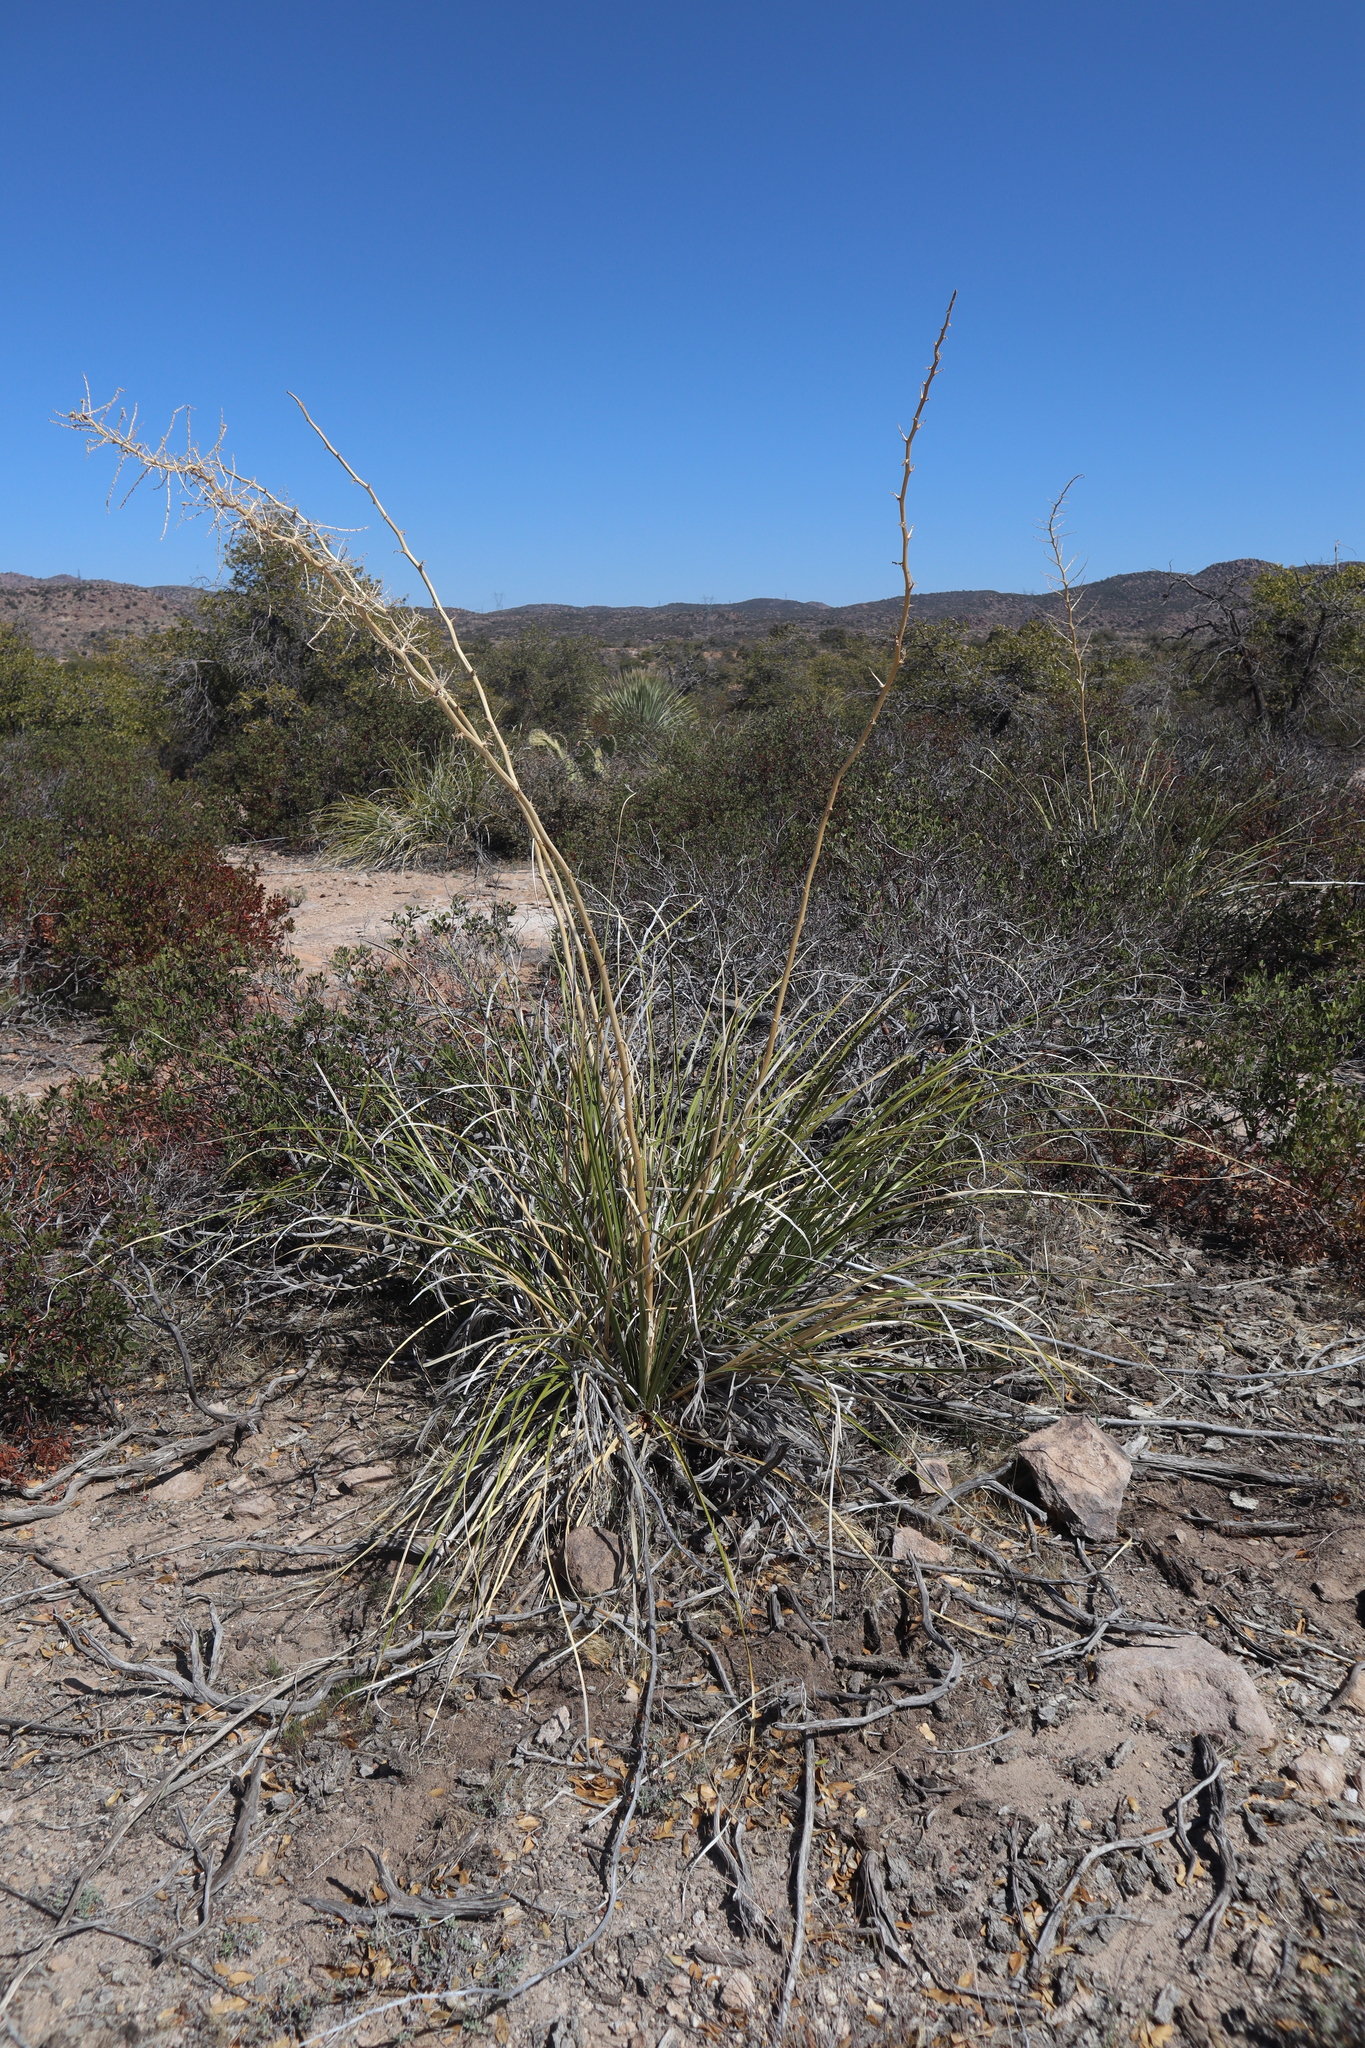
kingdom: Plantae
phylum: Tracheophyta
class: Liliopsida
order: Asparagales
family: Asparagaceae
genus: Nolina
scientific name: Nolina microcarpa
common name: Bear-grass
